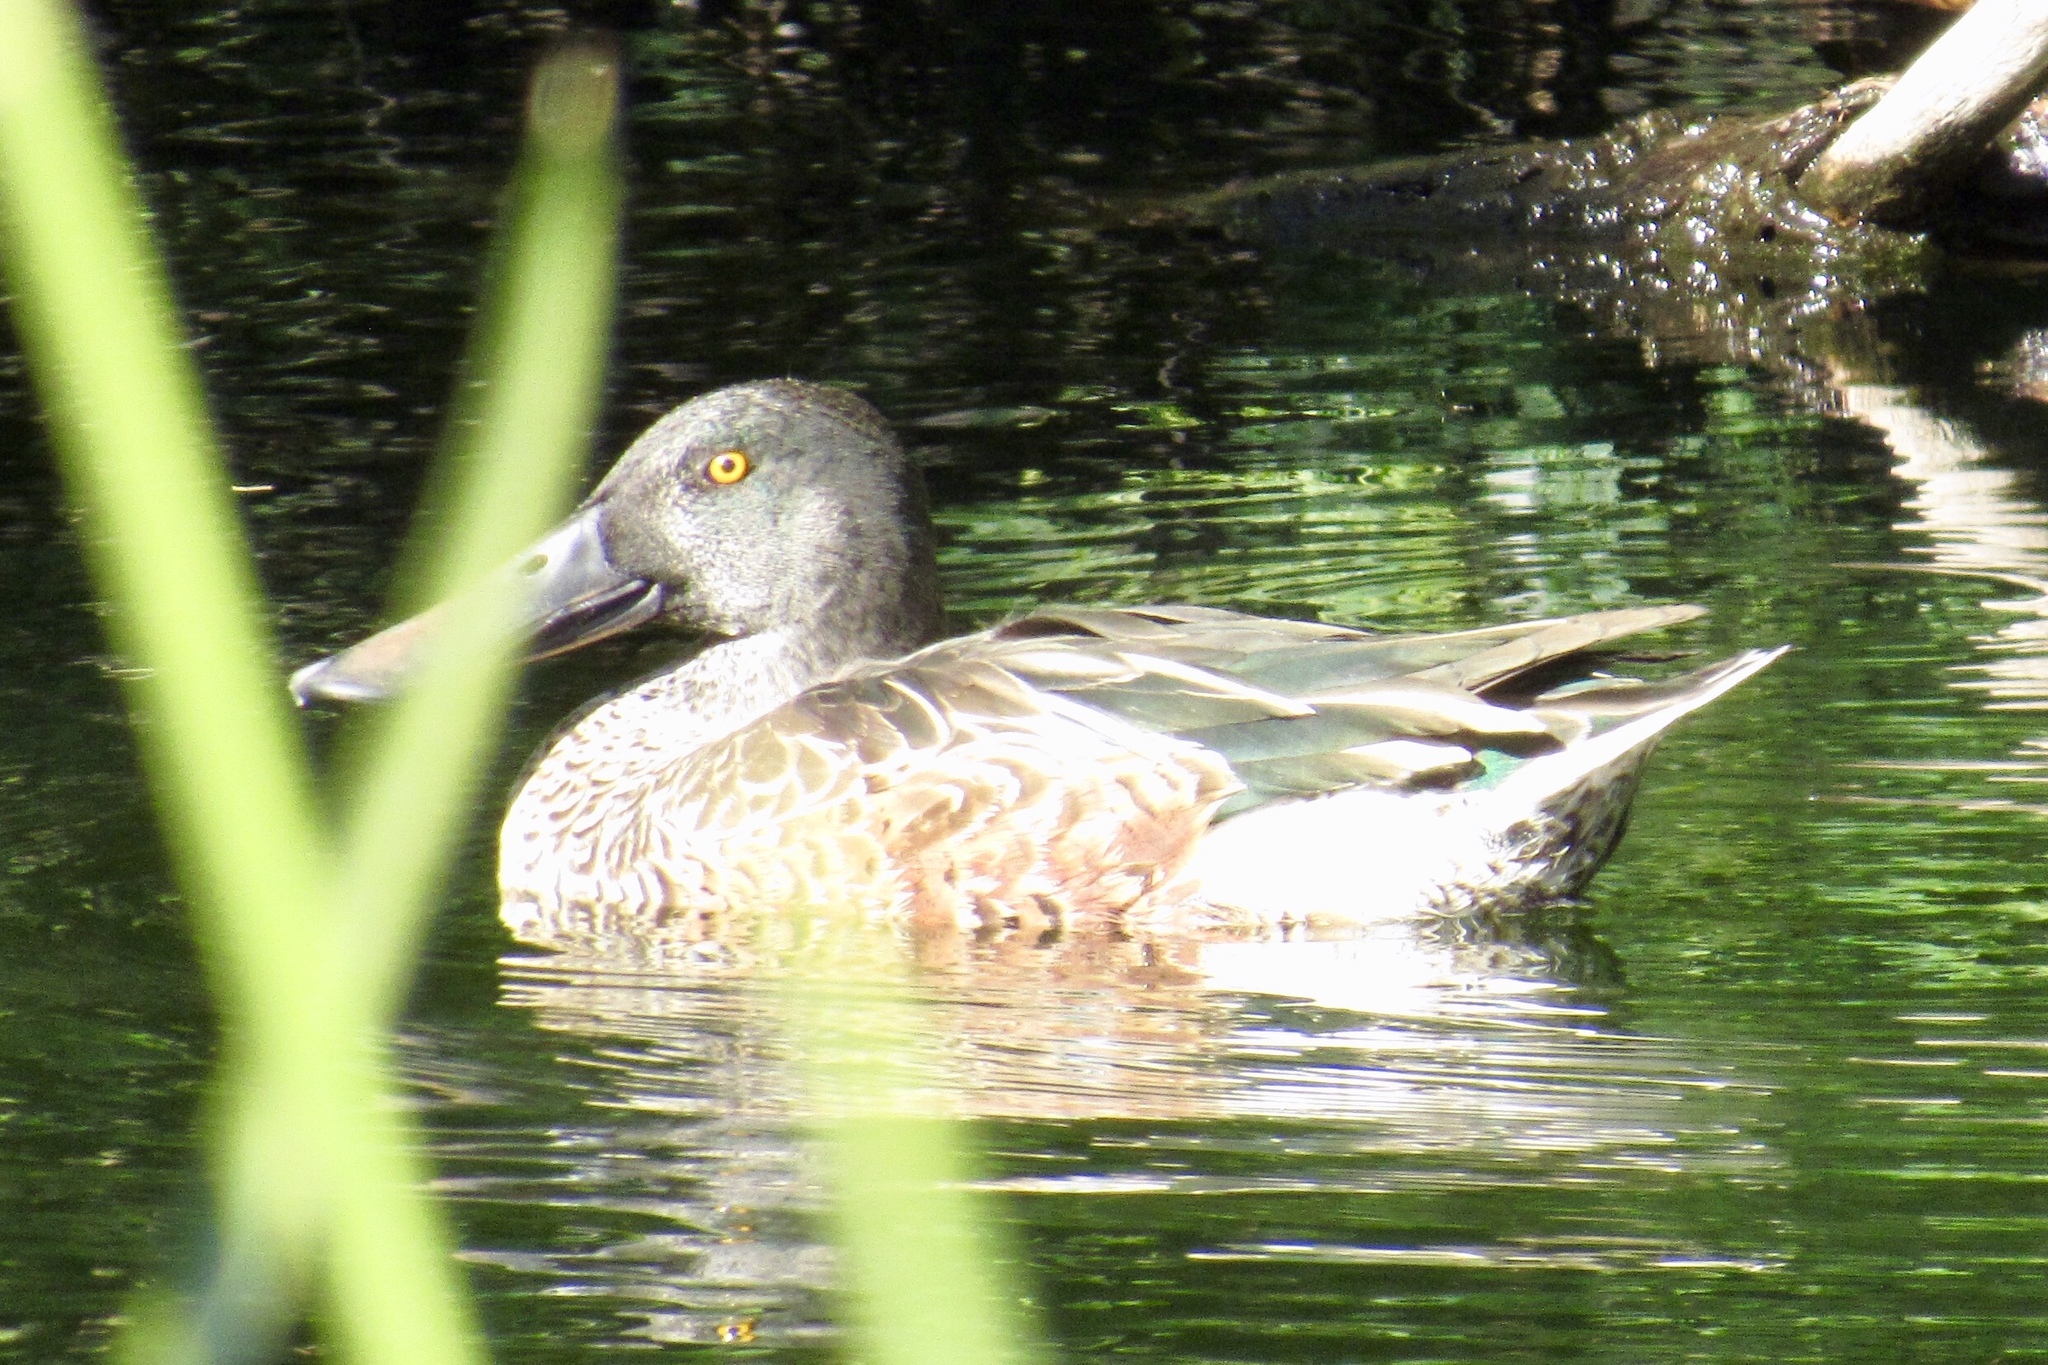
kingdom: Animalia
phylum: Chordata
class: Aves
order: Anseriformes
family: Anatidae
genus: Spatula
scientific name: Spatula clypeata
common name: Northern shoveler
